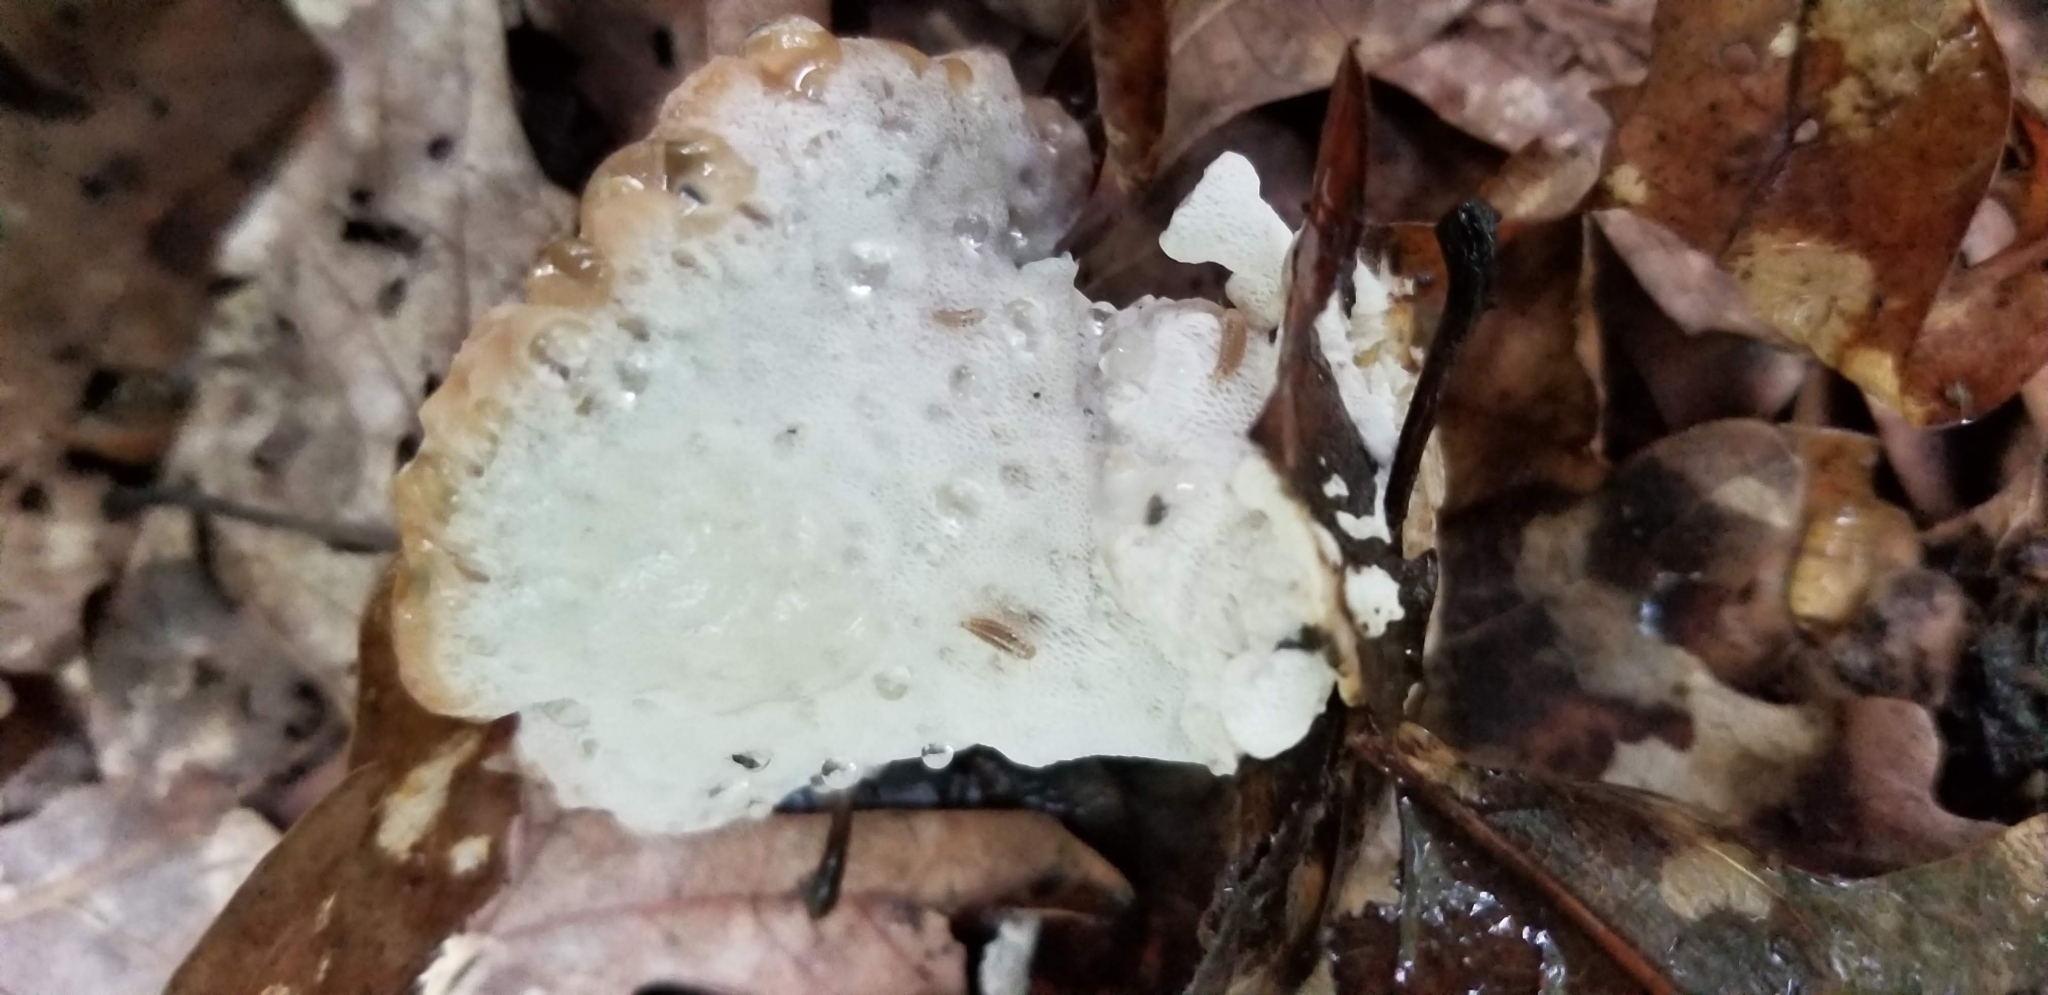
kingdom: Fungi
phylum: Basidiomycota
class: Agaricomycetes
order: Polyporales
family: Fomitopsidaceae
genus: Niveoporofomes
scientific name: Niveoporofomes spraguei
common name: Green cheese polypore
